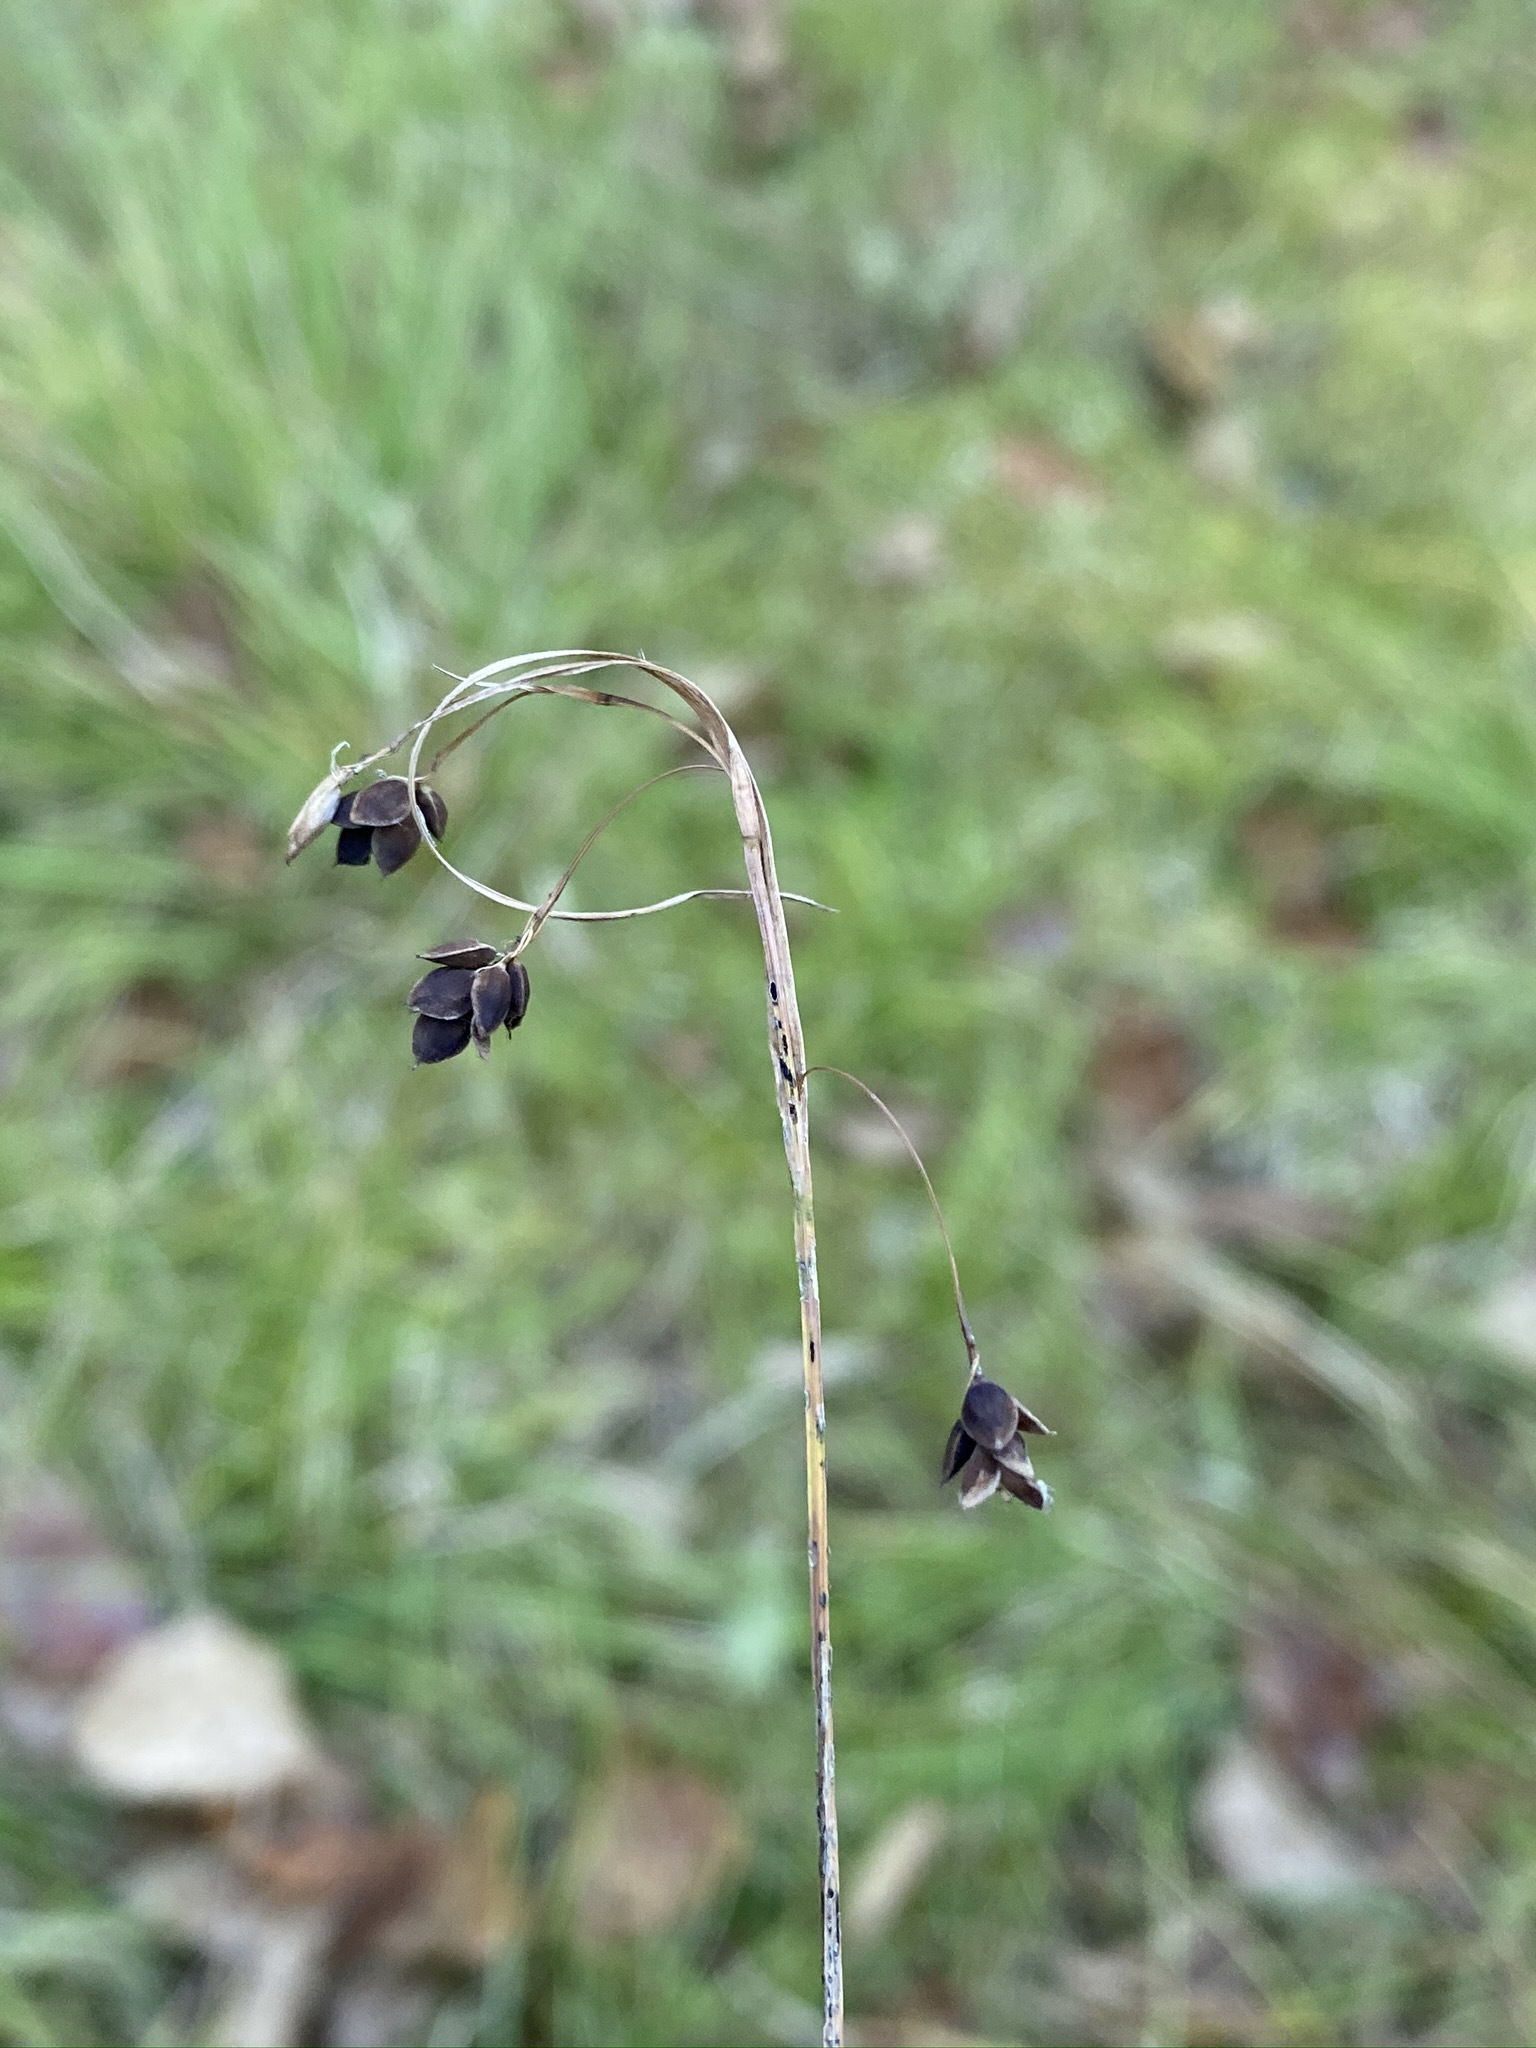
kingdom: Plantae
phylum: Tracheophyta
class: Liliopsida
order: Poales
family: Cyperaceae
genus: Carex
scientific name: Carex magellanica
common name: Bog sedge
